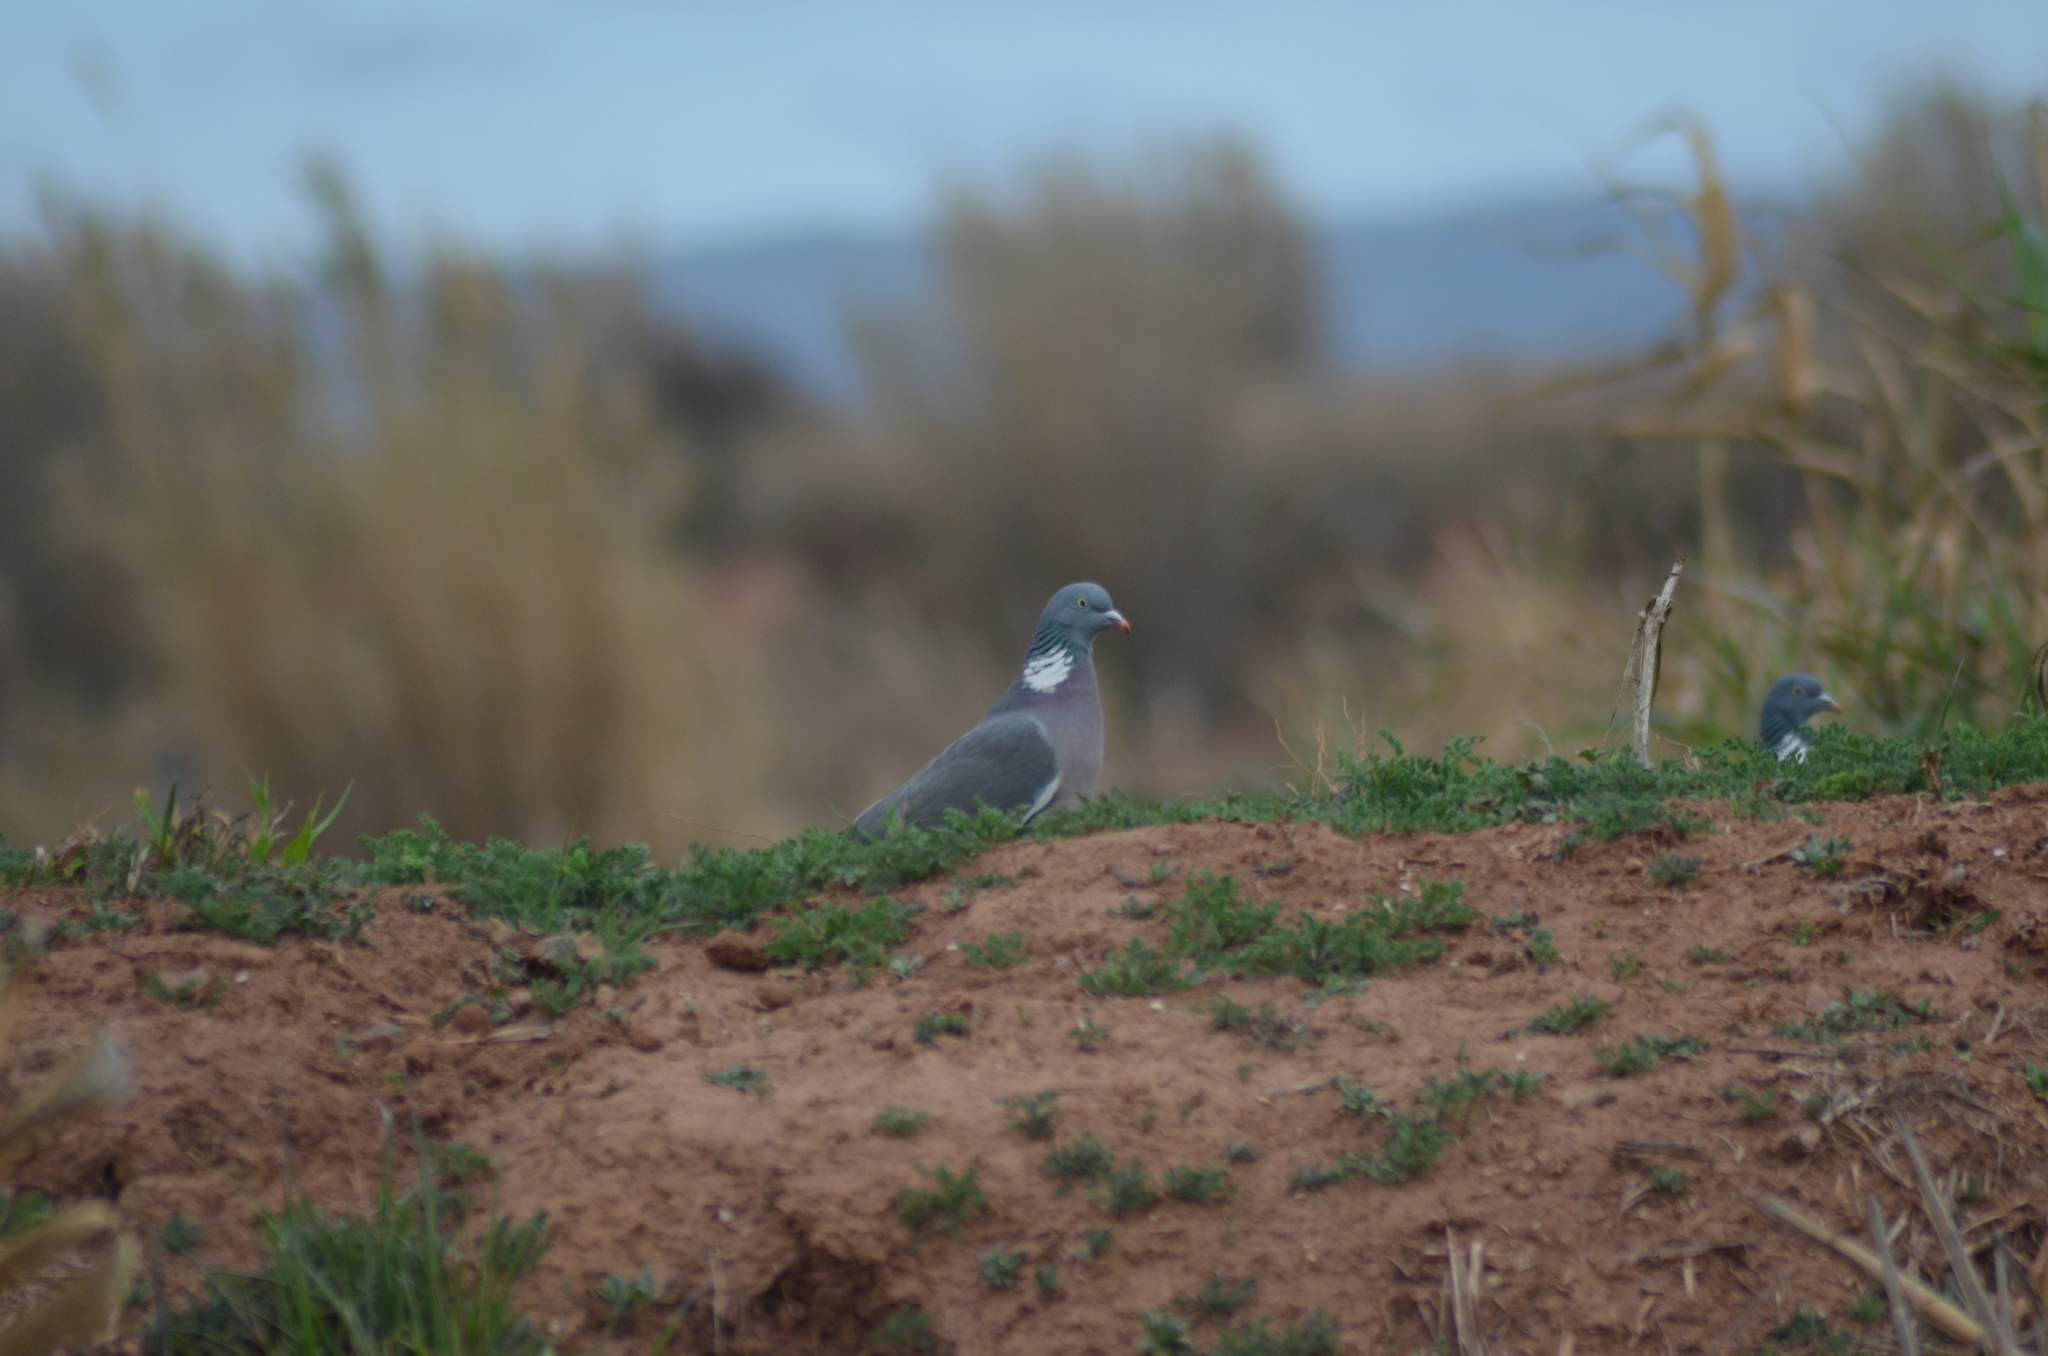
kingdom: Animalia
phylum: Chordata
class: Aves
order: Columbiformes
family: Columbidae
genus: Columba
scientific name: Columba palumbus
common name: Common wood pigeon
